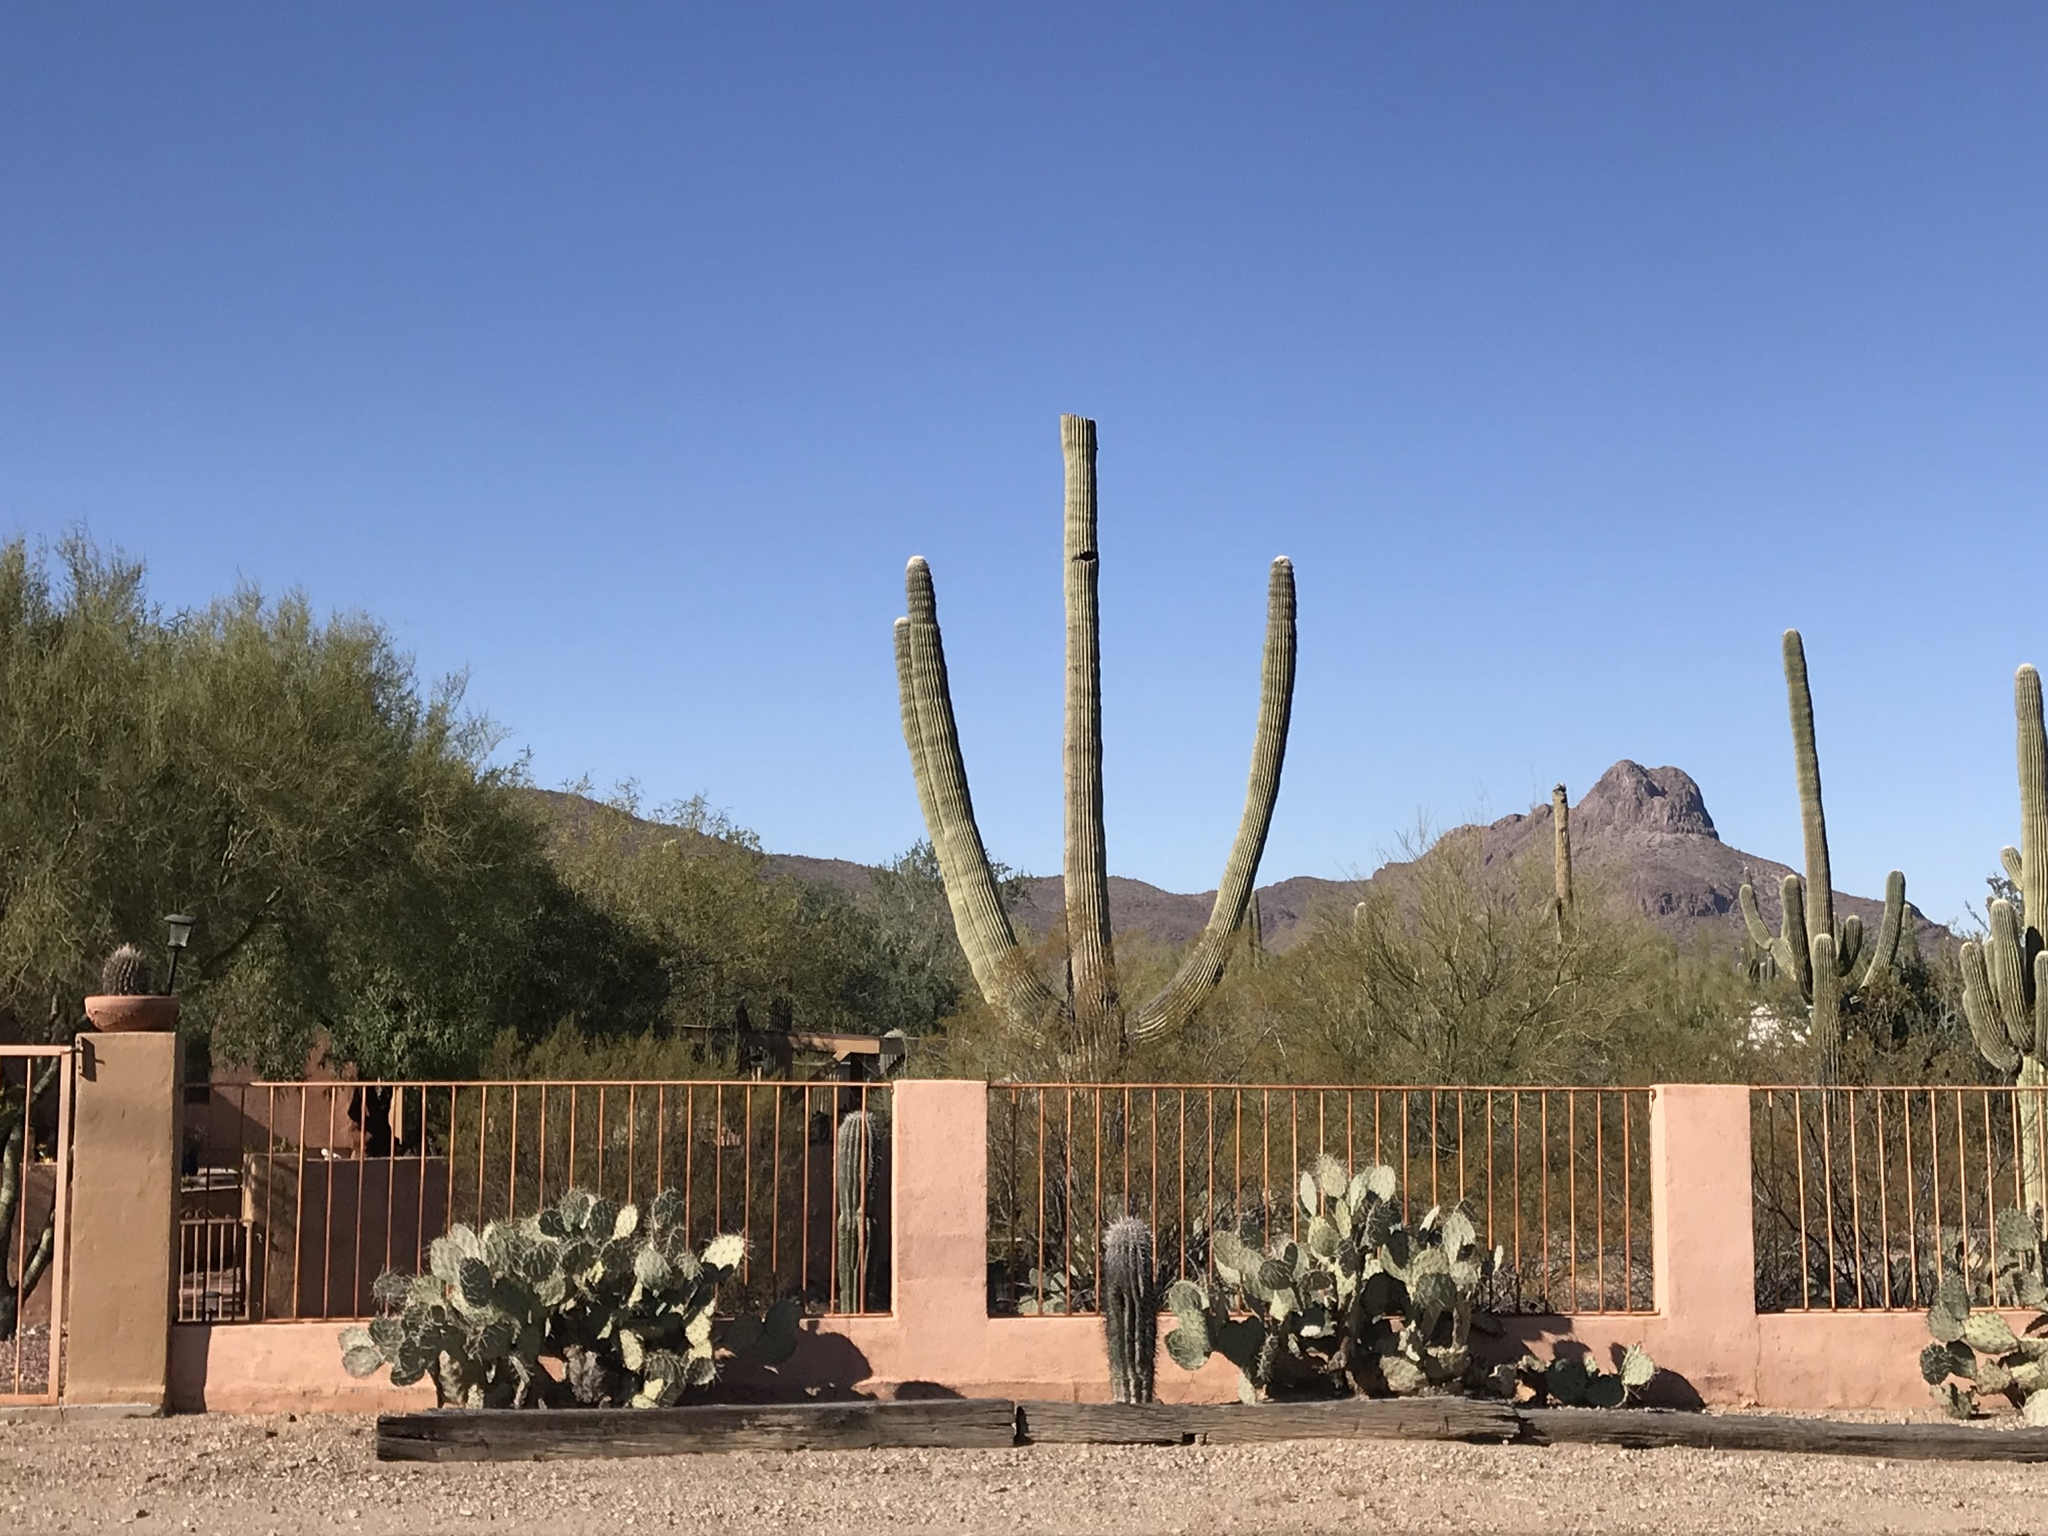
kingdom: Plantae
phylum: Tracheophyta
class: Magnoliopsida
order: Caryophyllales
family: Cactaceae
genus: Carnegiea
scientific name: Carnegiea gigantea
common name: Saguaro
